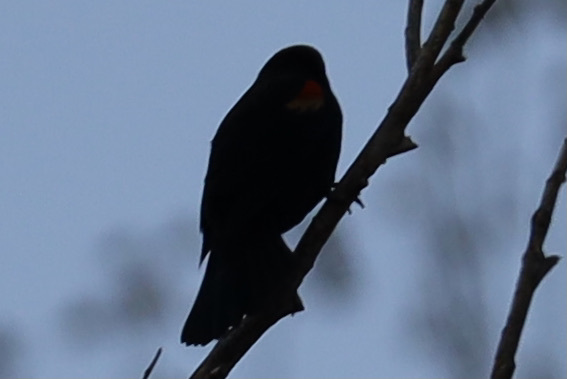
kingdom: Animalia
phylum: Chordata
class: Aves
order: Passeriformes
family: Icteridae
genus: Agelaius
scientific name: Agelaius phoeniceus
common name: Red-winged blackbird
